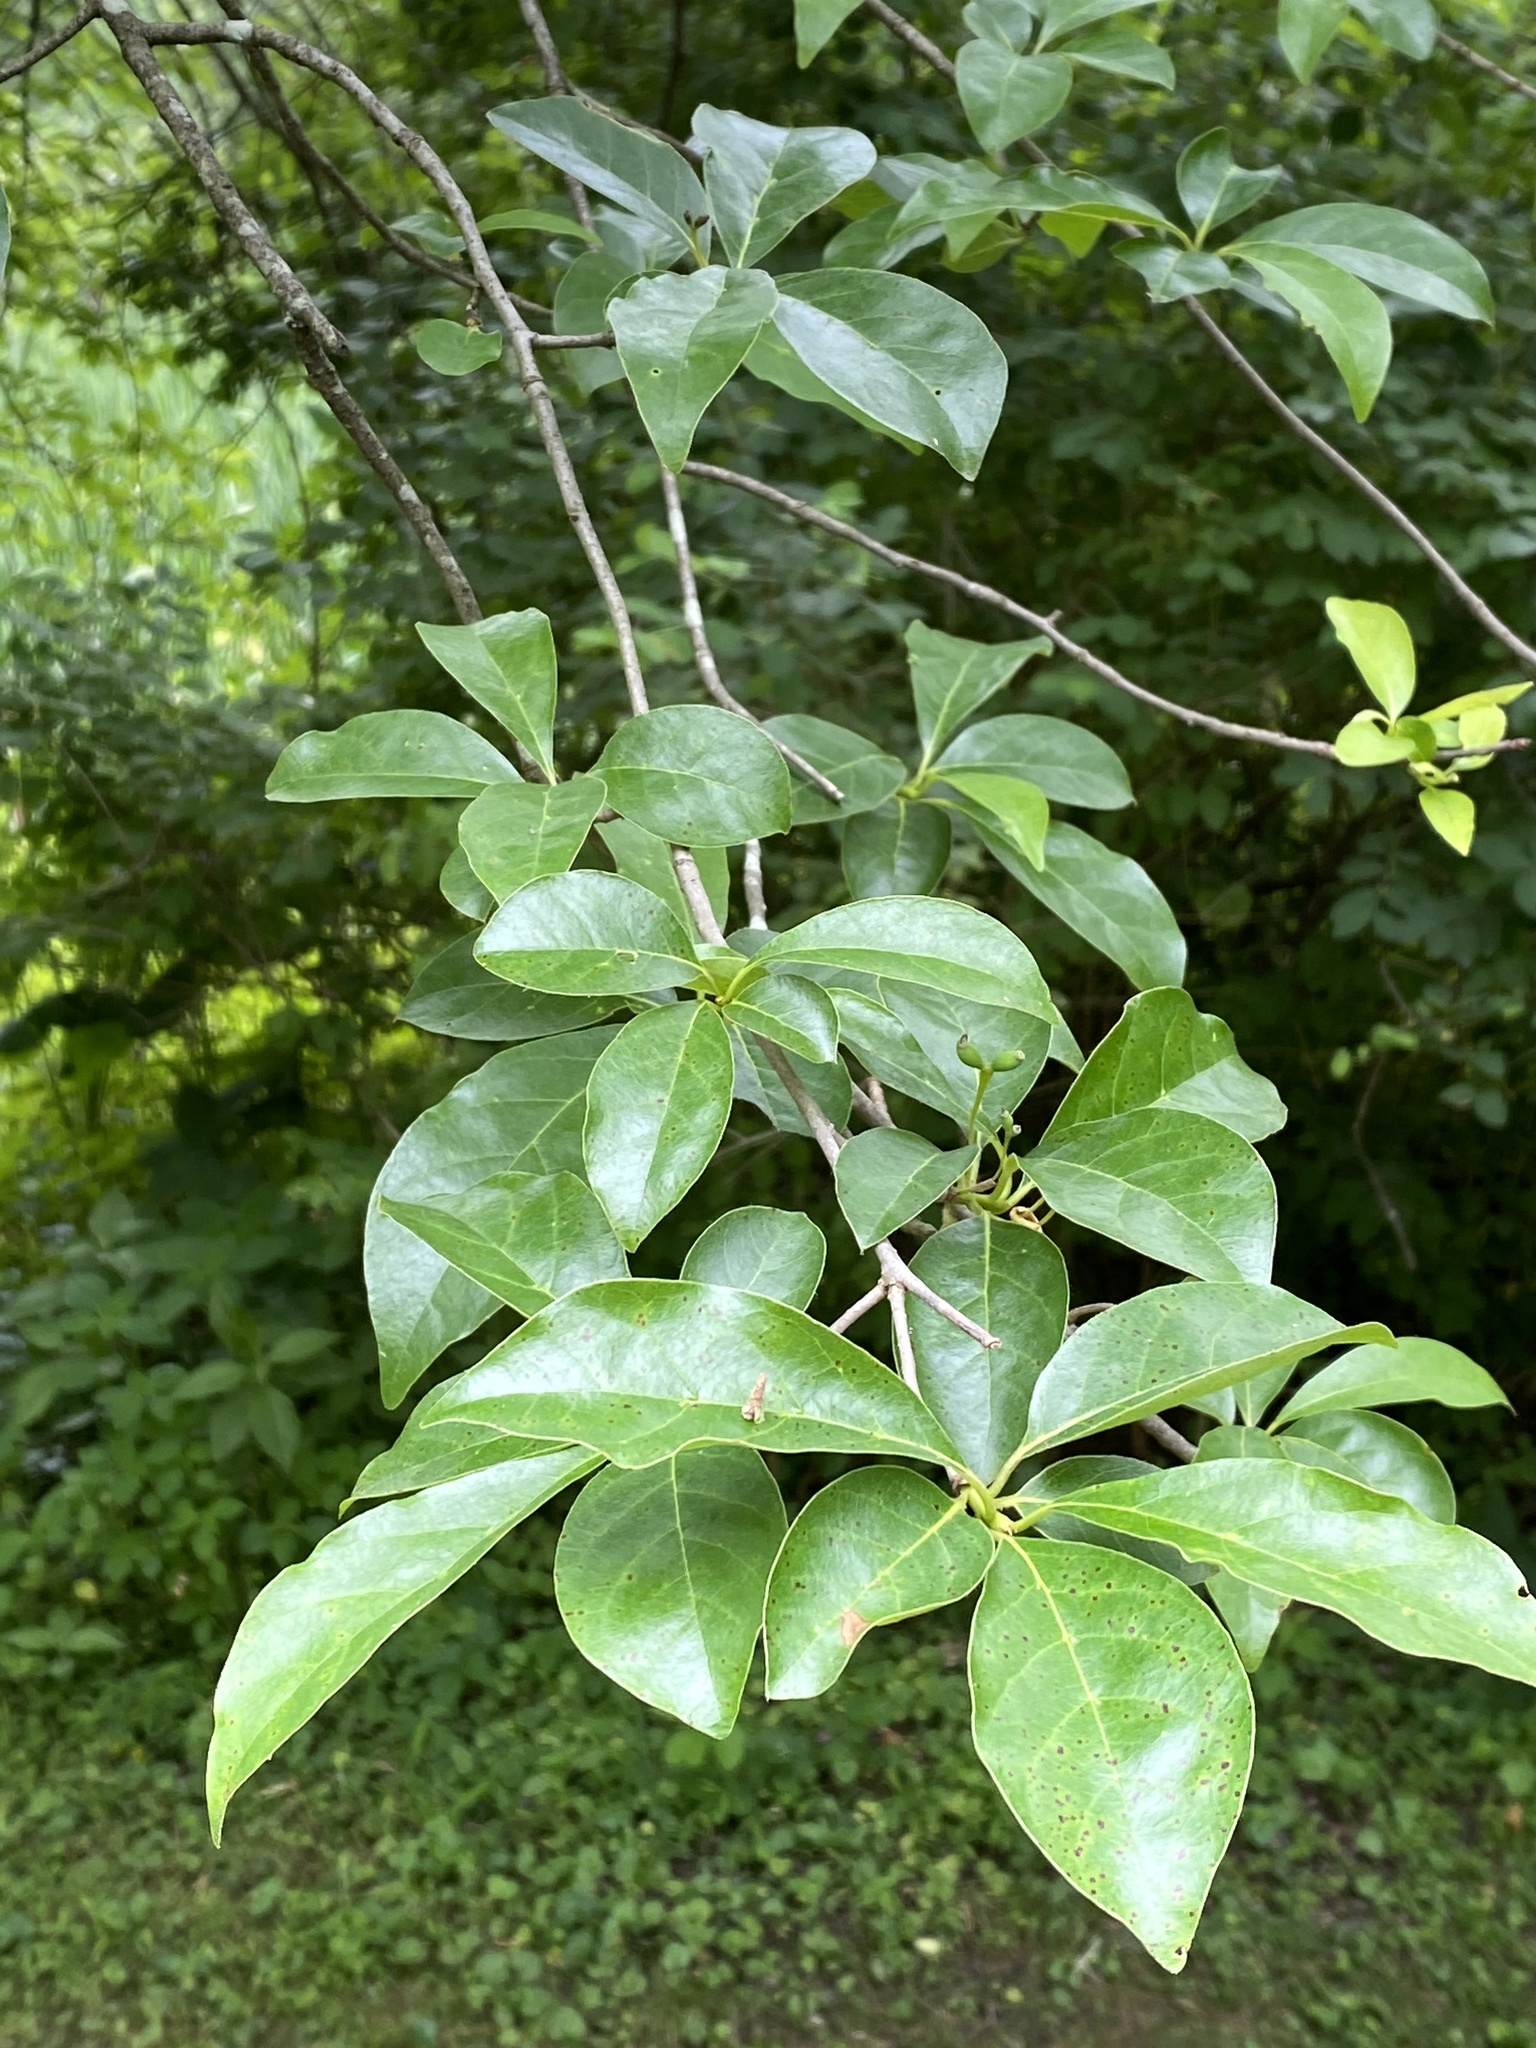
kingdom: Plantae
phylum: Tracheophyta
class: Magnoliopsida
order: Cornales
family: Nyssaceae
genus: Nyssa
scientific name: Nyssa sylvatica
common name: Black tupelo
